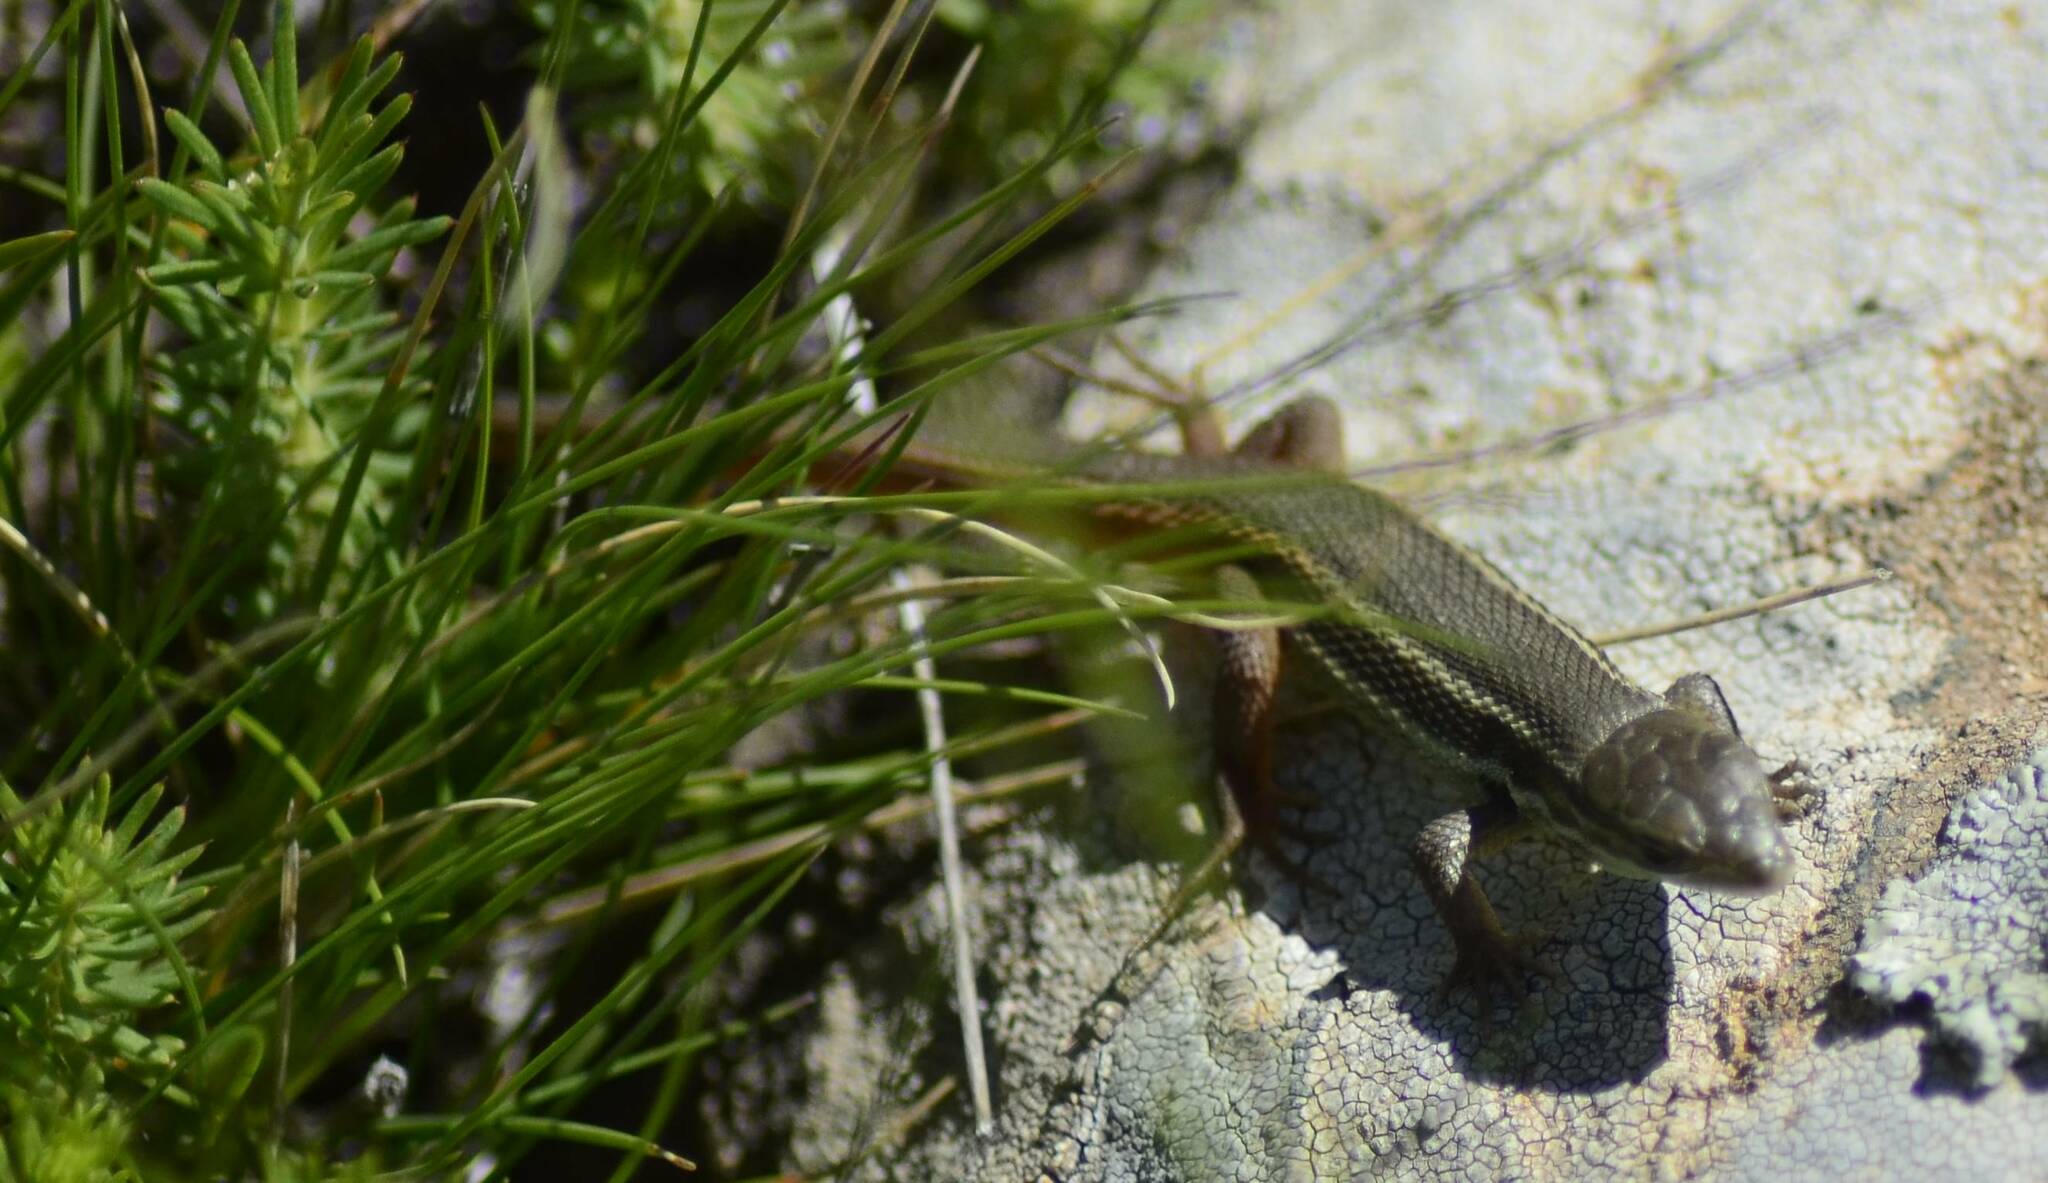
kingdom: Animalia
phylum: Chordata
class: Squamata
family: Lacertidae
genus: Psammodromus
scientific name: Psammodromus algirus
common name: Algerian psammodromus
